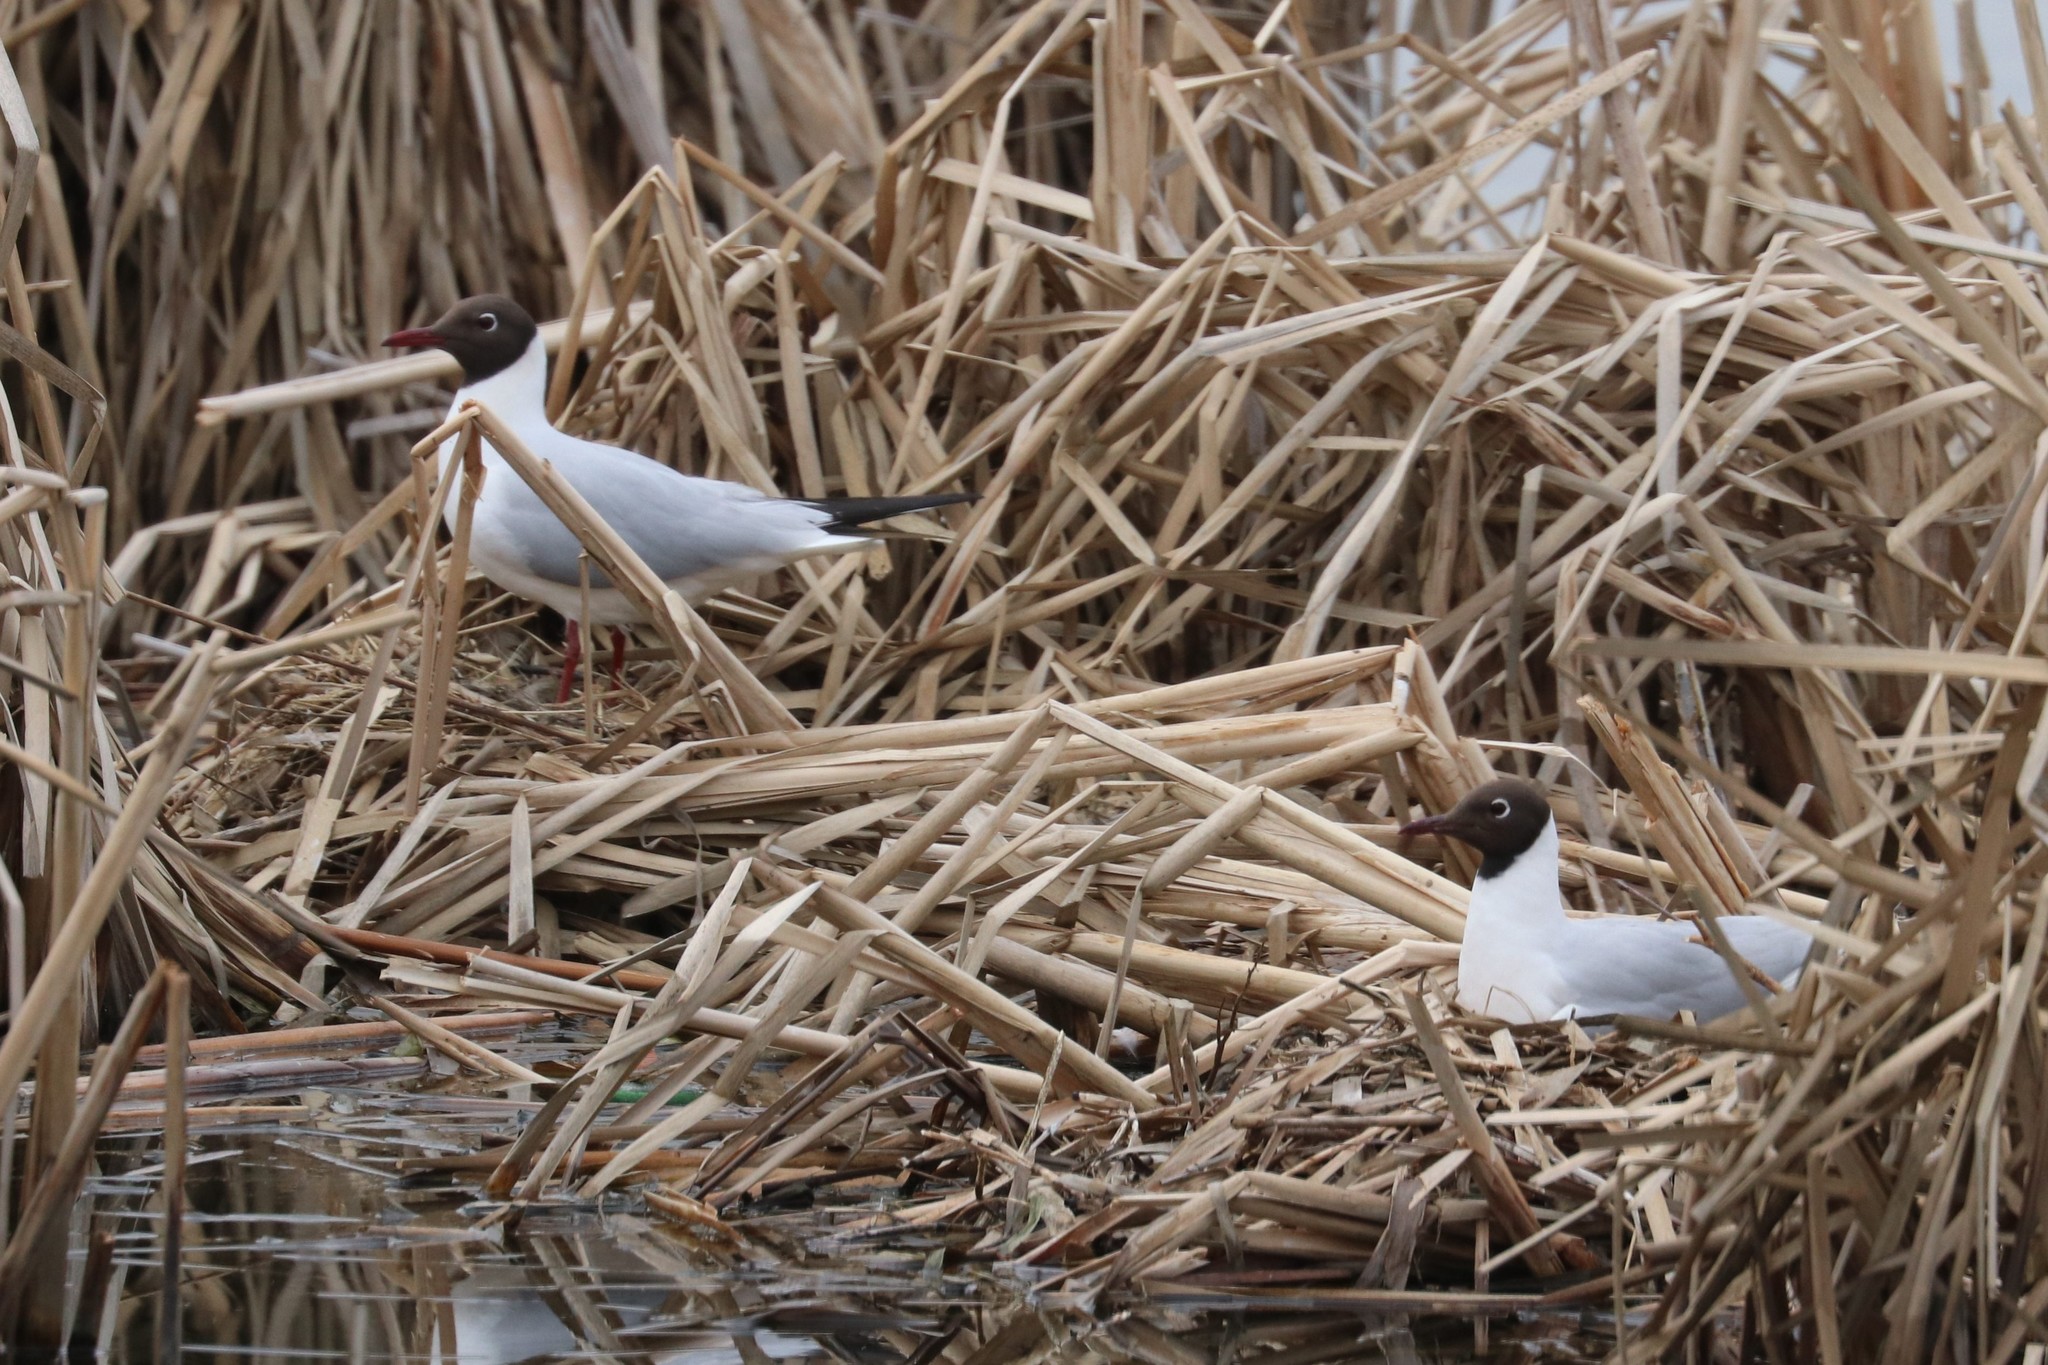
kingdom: Animalia
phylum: Chordata
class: Aves
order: Charadriiformes
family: Laridae
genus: Chroicocephalus
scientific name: Chroicocephalus ridibundus
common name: Black-headed gull
